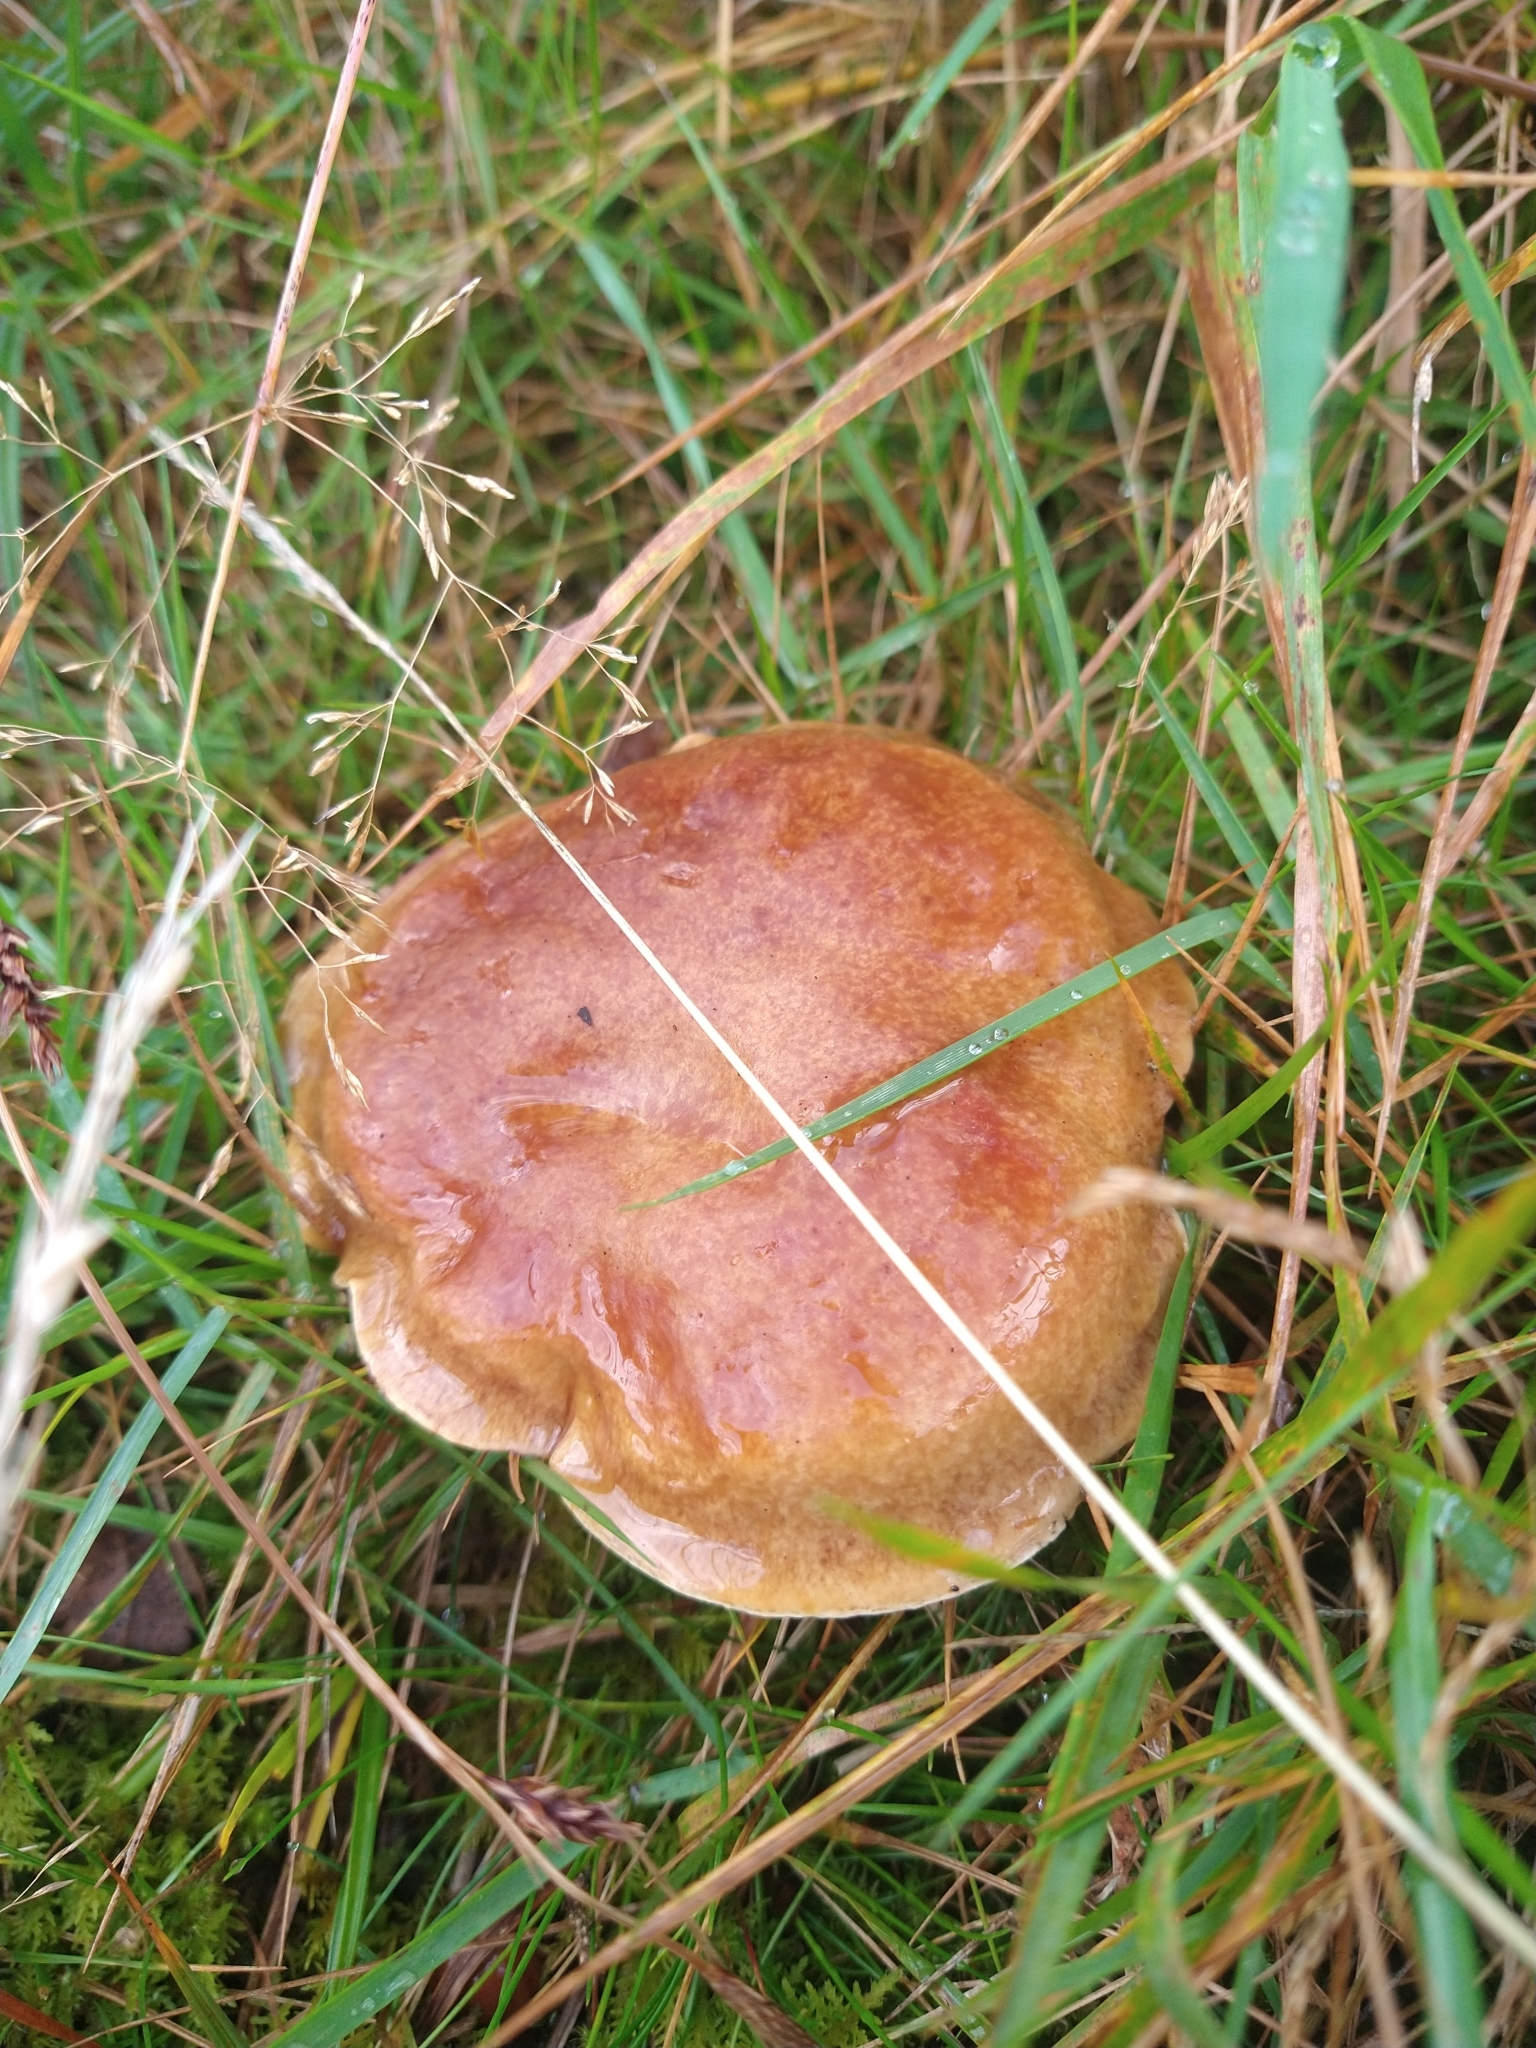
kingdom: Fungi
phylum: Basidiomycota
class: Agaricomycetes
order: Boletales
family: Suillaceae
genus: Suillus
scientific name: Suillus grevillei
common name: Larch bolete
